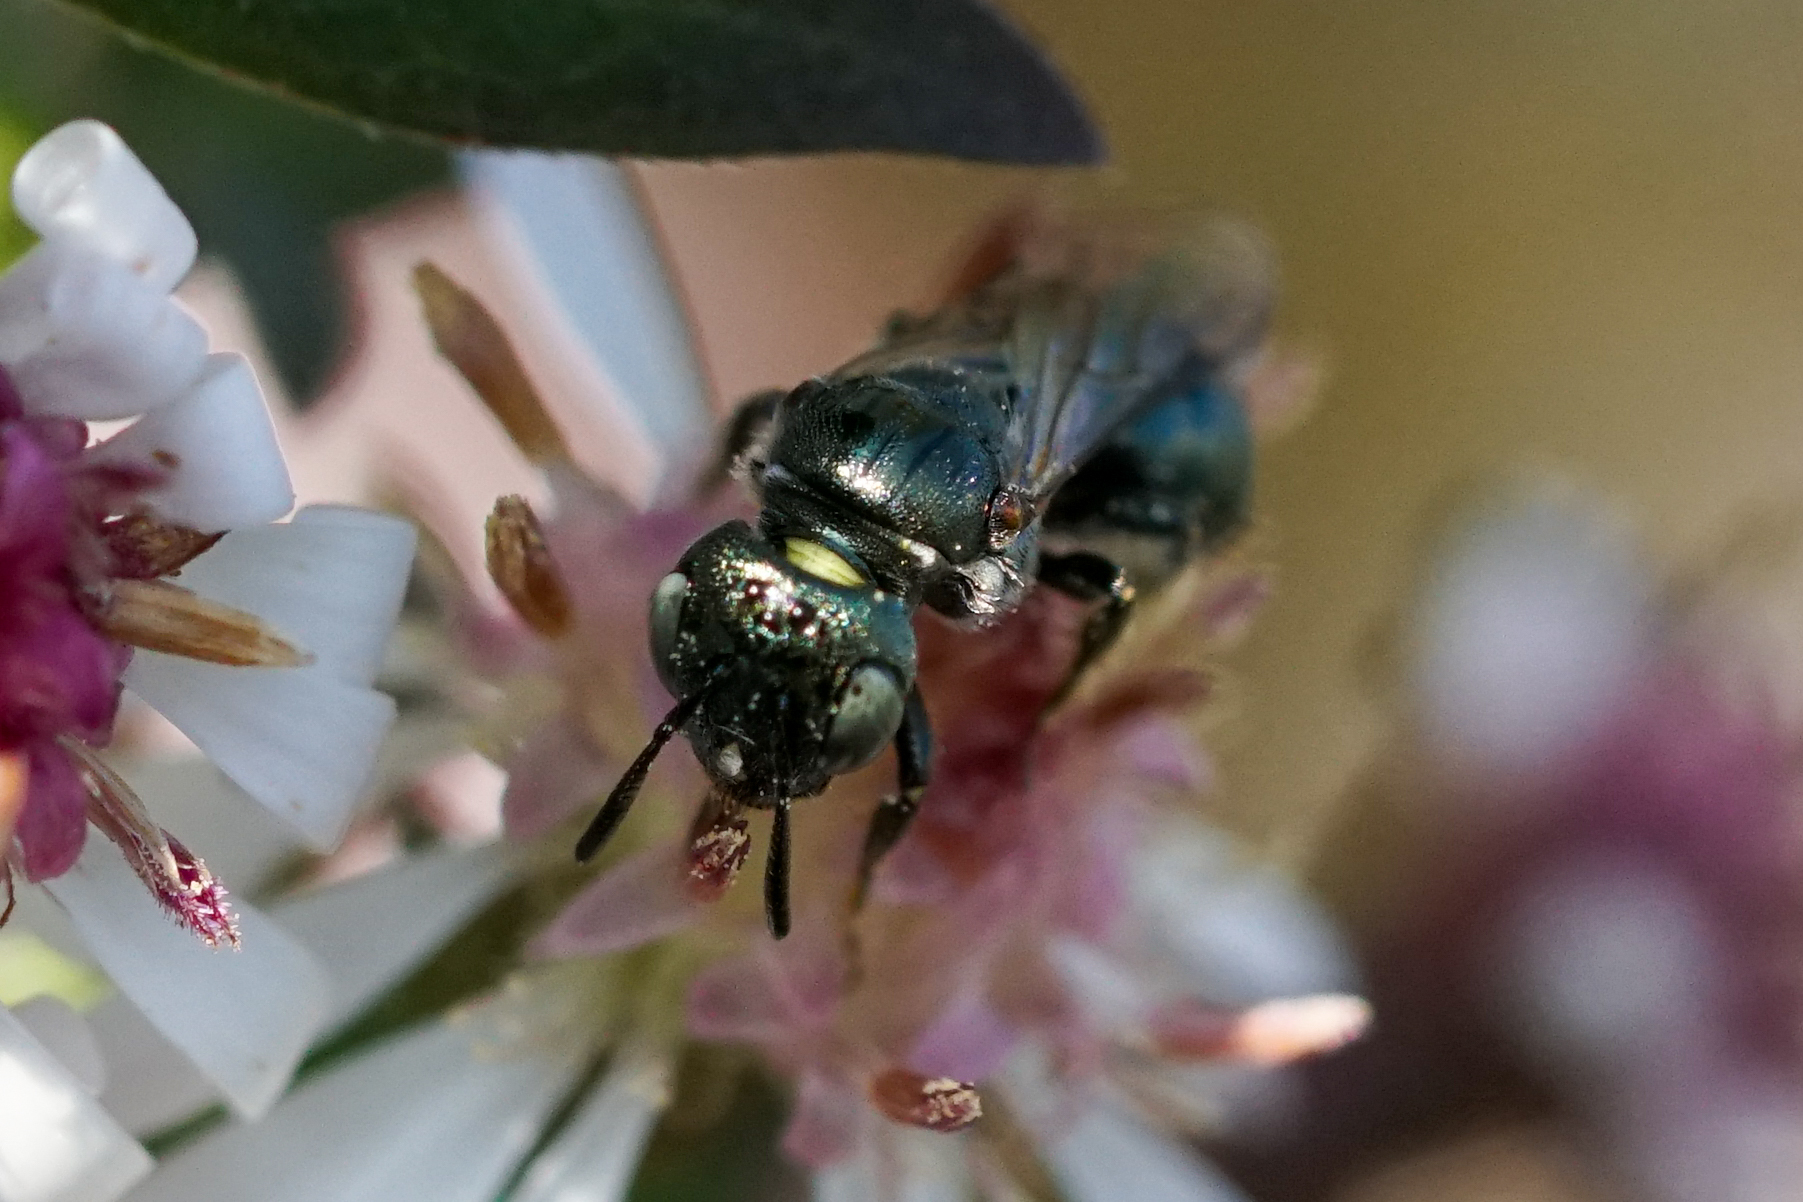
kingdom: Animalia
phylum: Arthropoda
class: Insecta
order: Hymenoptera
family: Apidae
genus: Zadontomerus
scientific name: Zadontomerus
